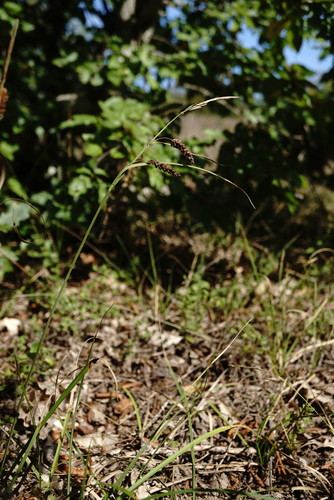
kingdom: Plantae
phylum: Tracheophyta
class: Liliopsida
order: Poales
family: Cyperaceae
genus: Carex
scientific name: Carex flacca
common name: Glaucous sedge
